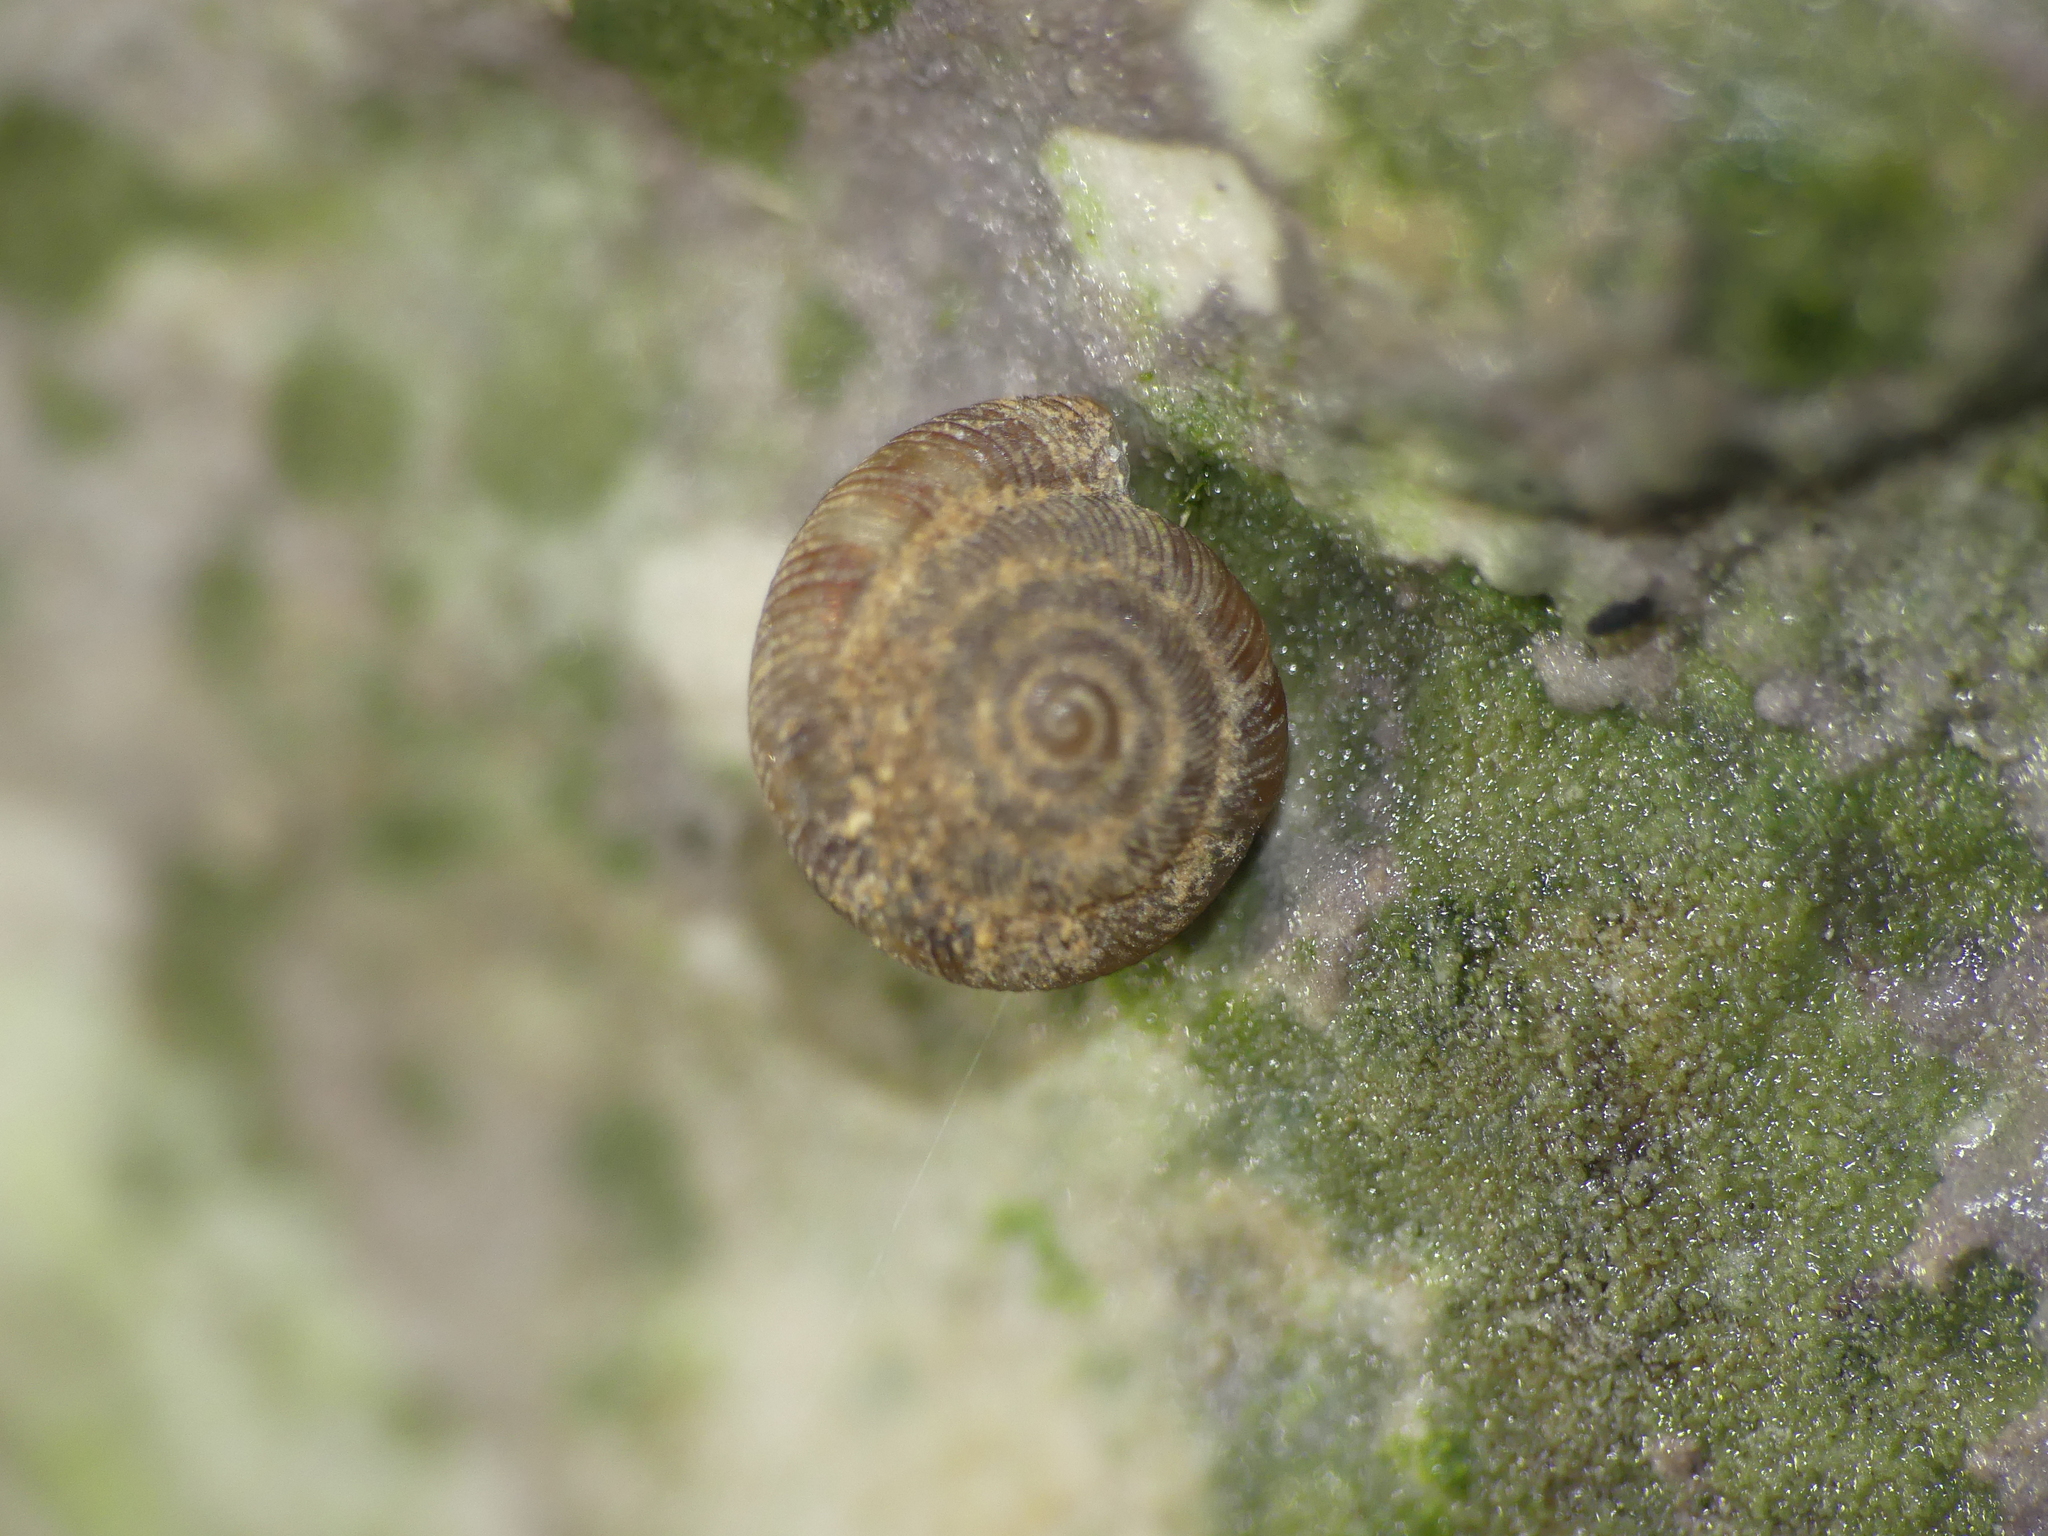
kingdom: Animalia
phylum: Mollusca
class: Gastropoda
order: Stylommatophora
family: Discidae
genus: Discus
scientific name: Discus rotundatus
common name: Rounded snail
